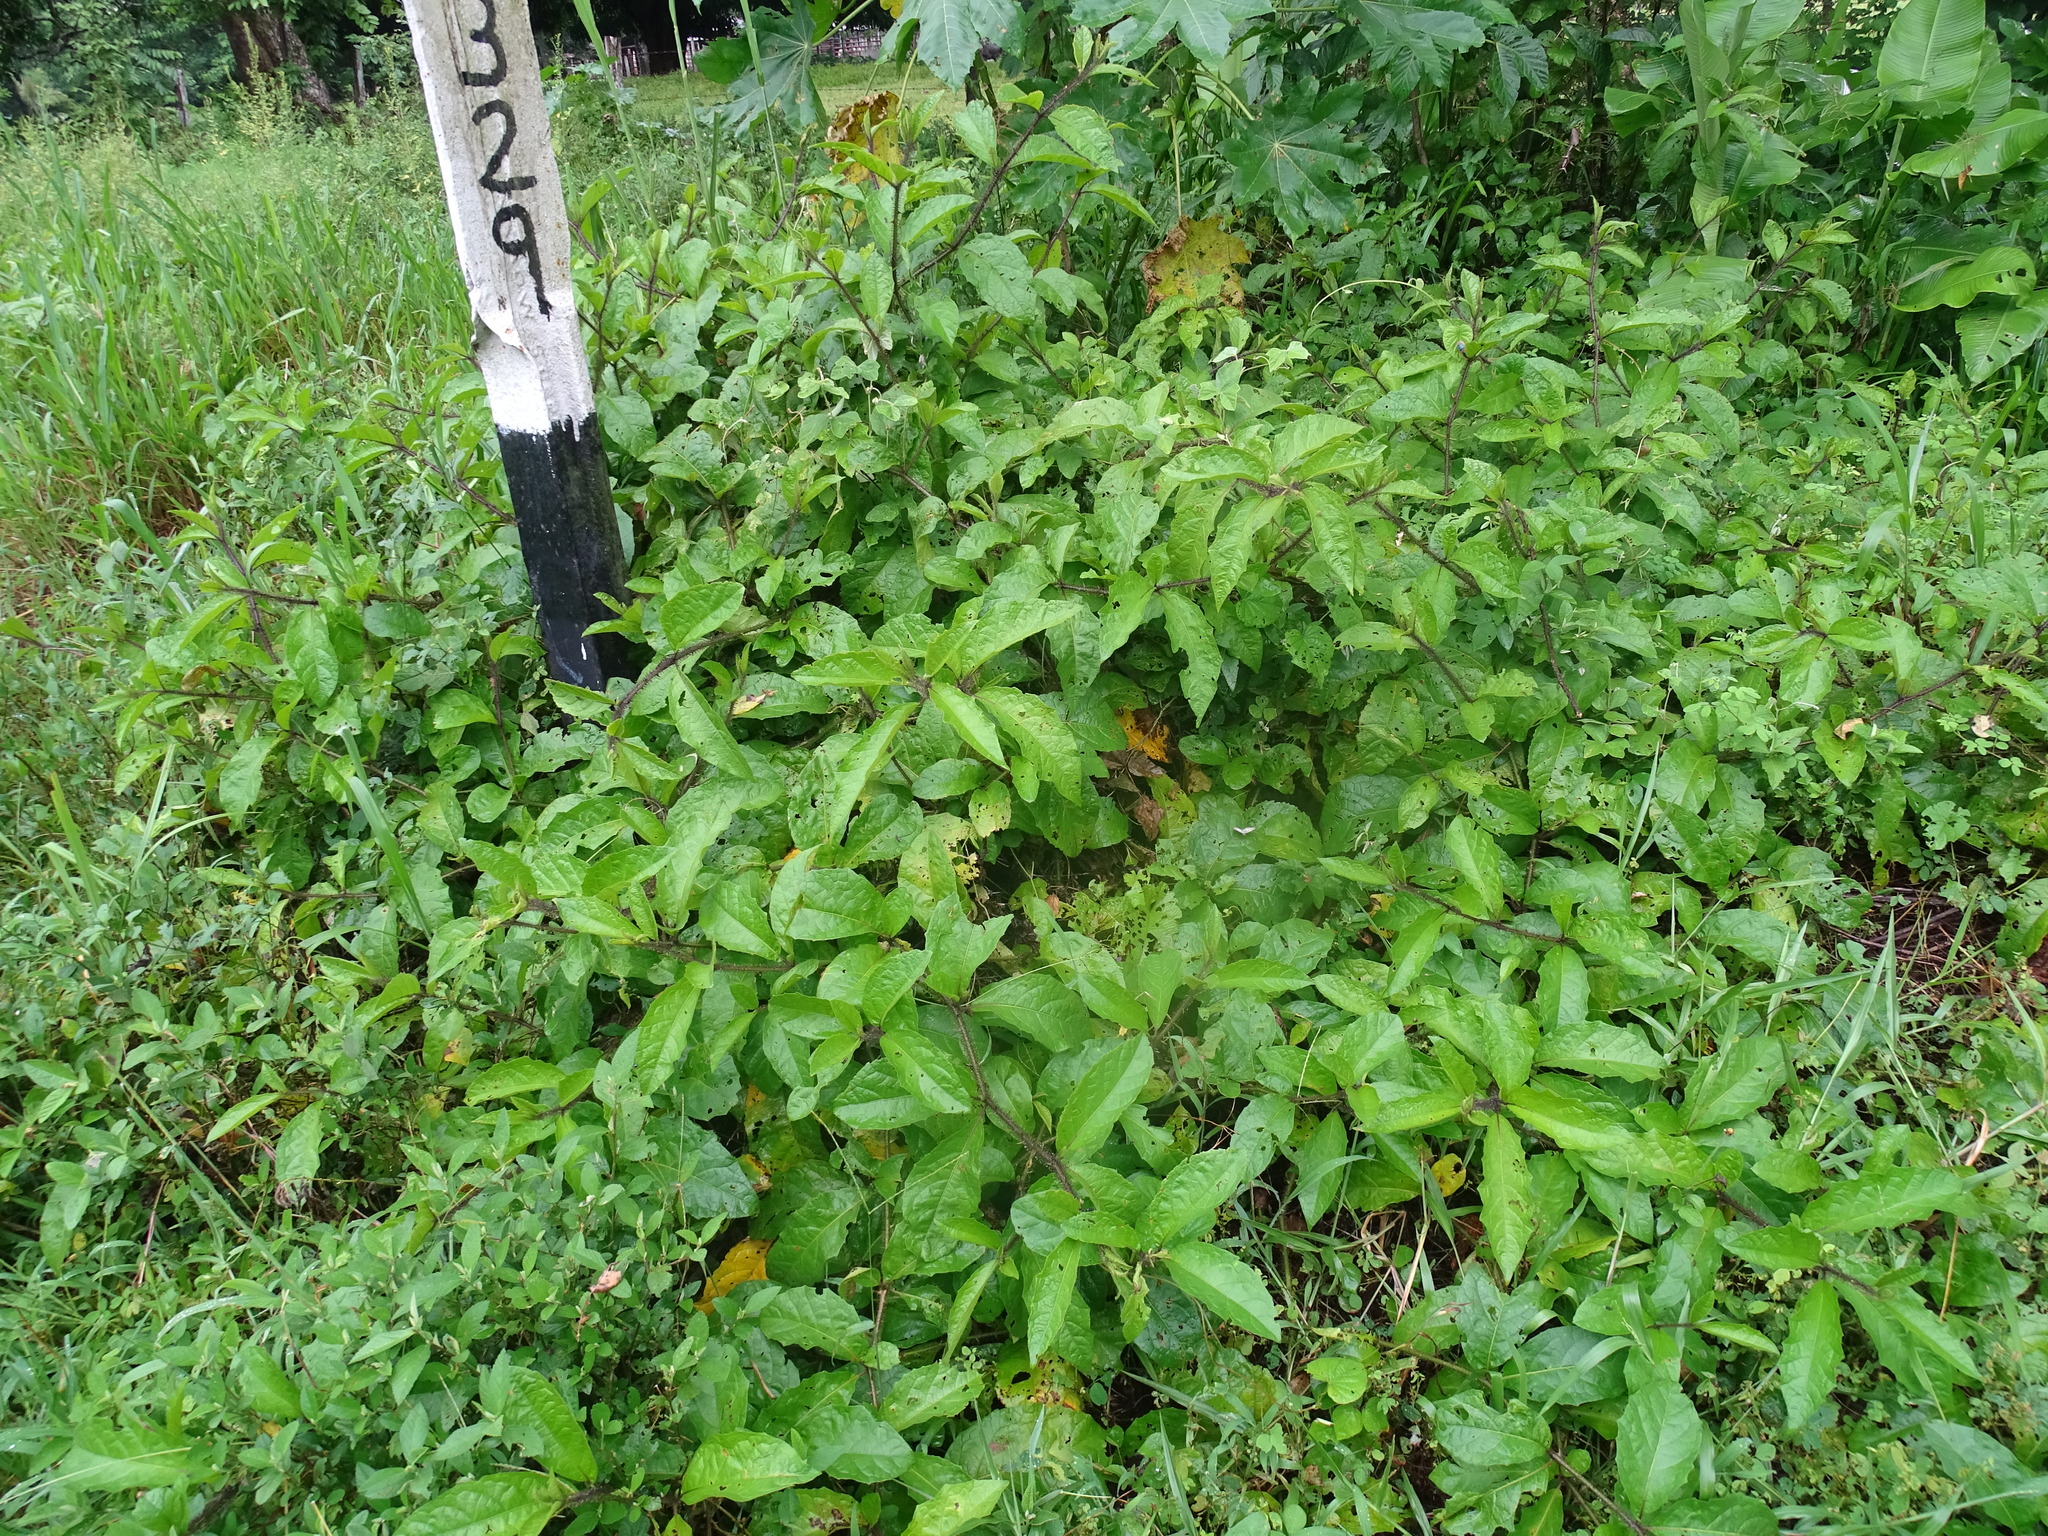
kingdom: Plantae
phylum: Tracheophyta
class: Magnoliopsida
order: Solanales
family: Solanaceae
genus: Solanum
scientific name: Solanum volubile
